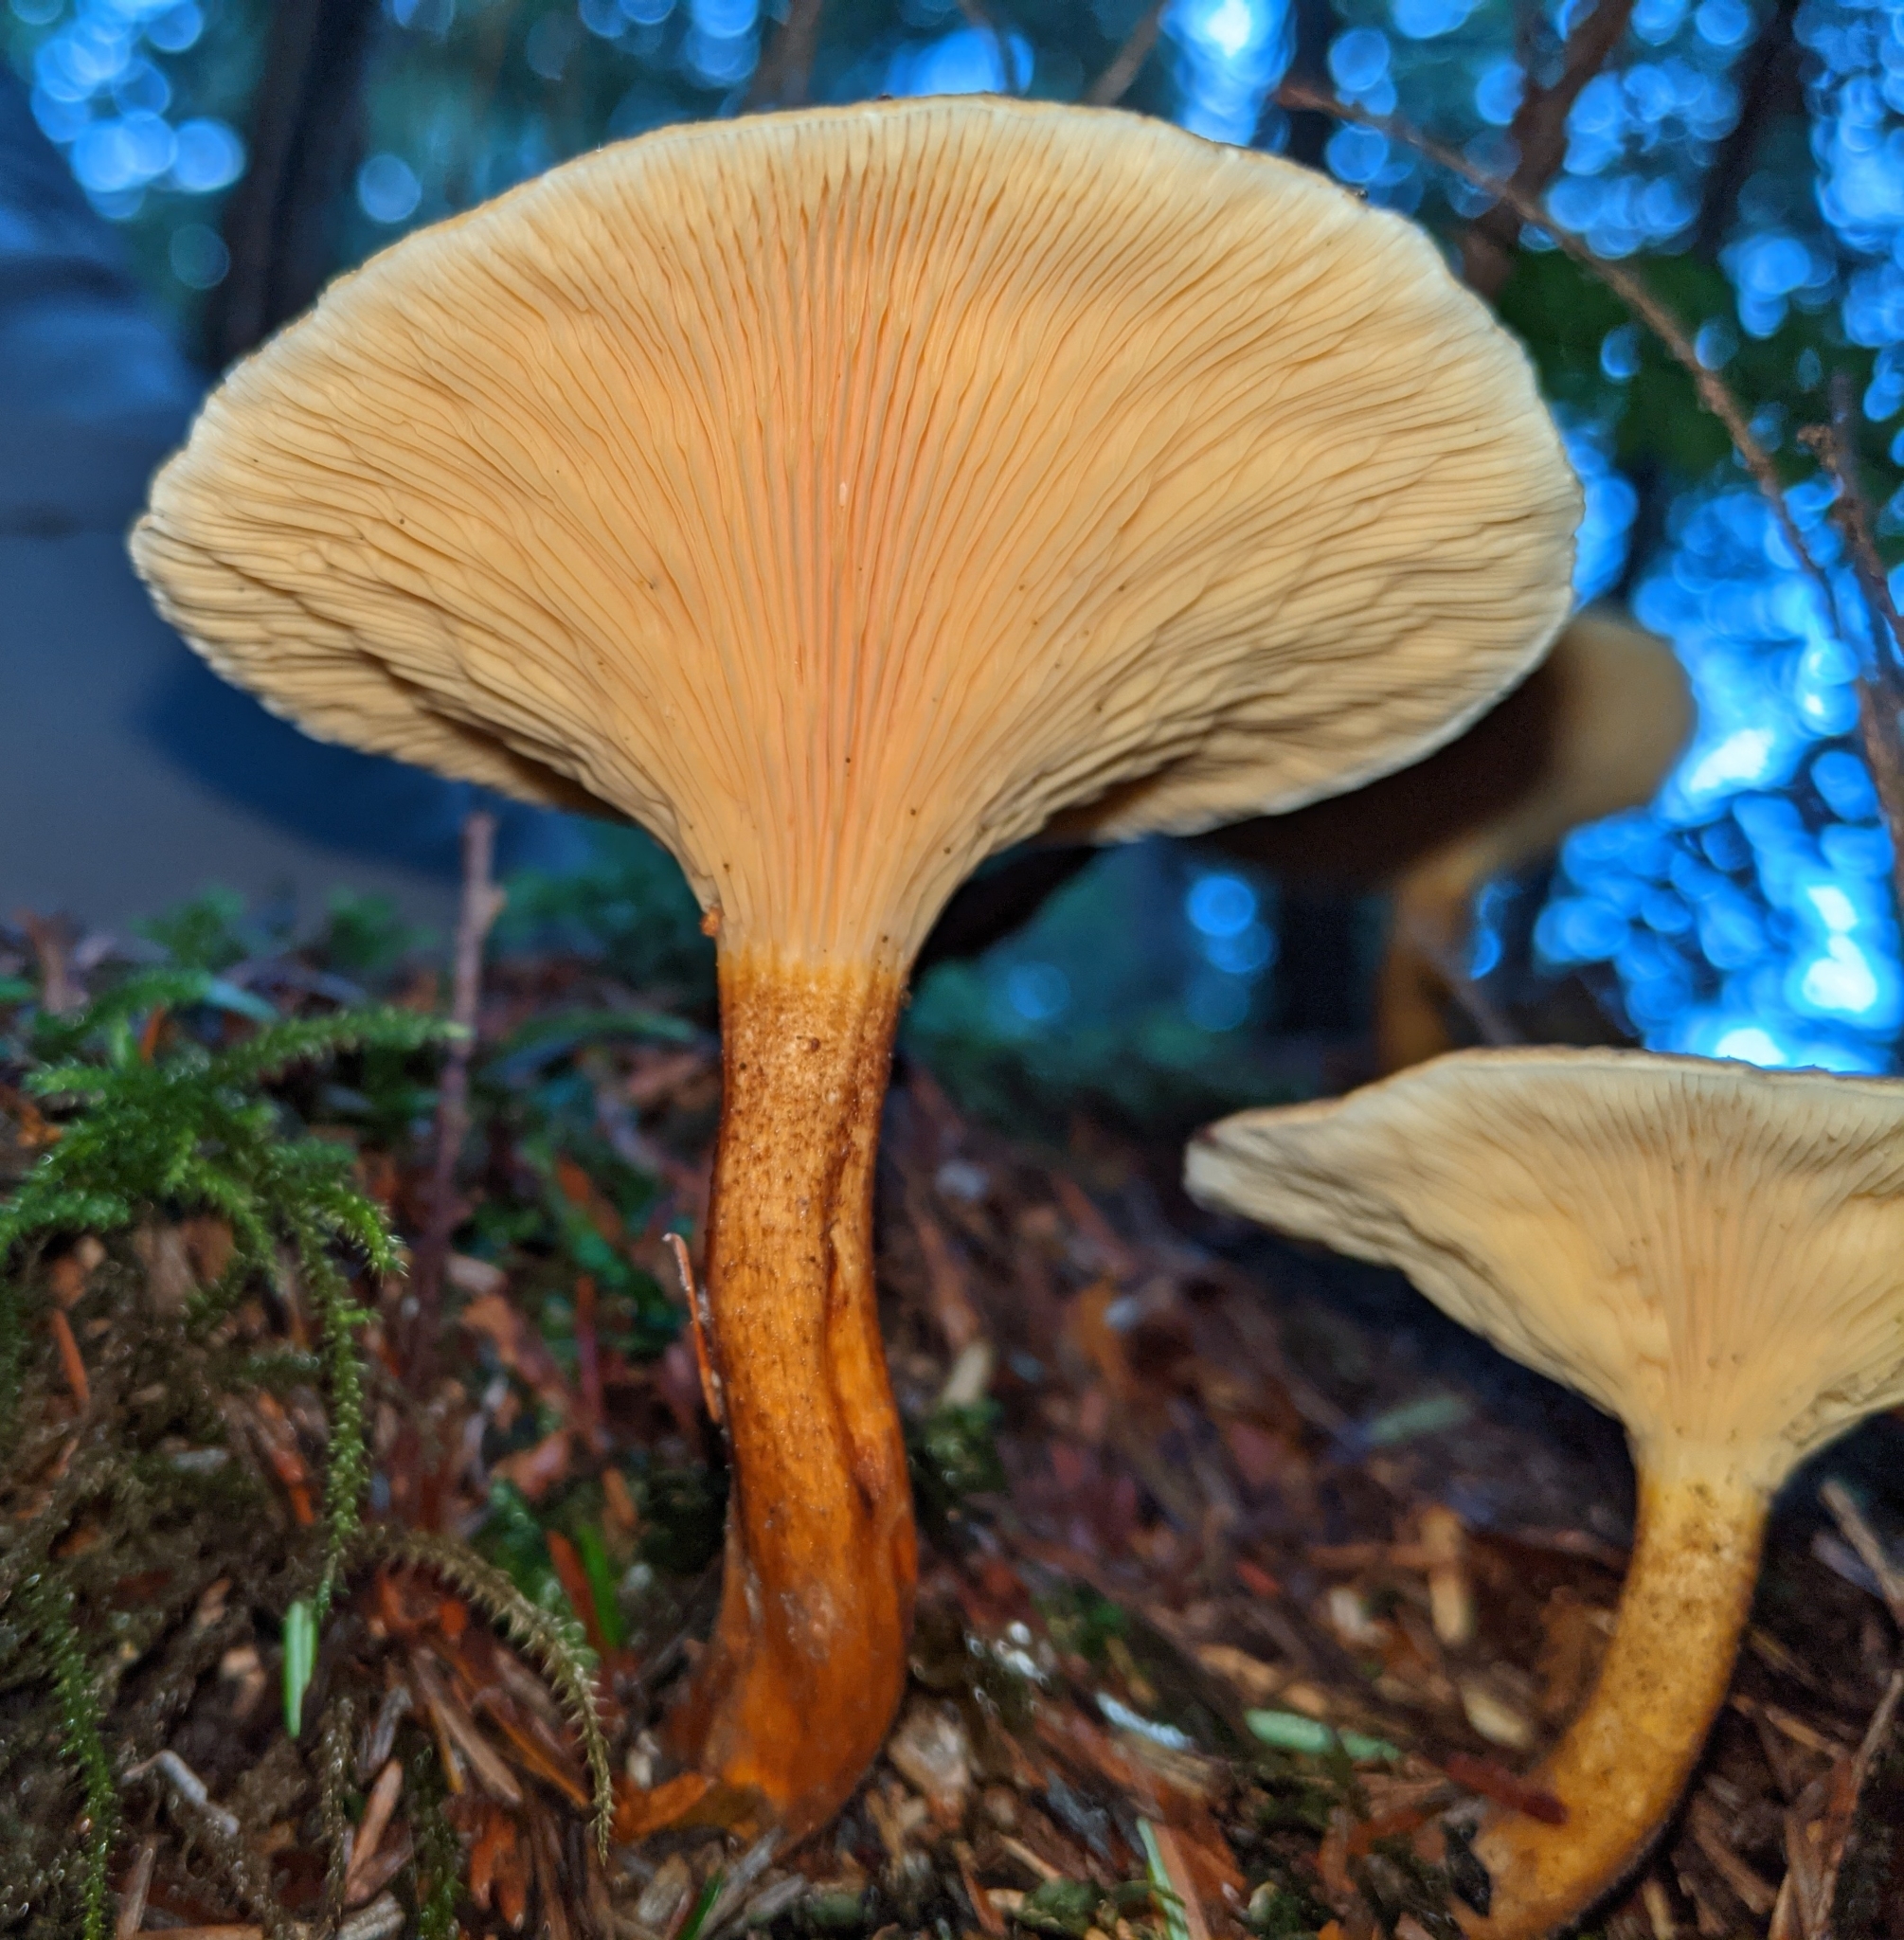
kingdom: Fungi
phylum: Basidiomycota
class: Agaricomycetes
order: Boletales
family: Hygrophoropsidaceae
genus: Hygrophoropsis
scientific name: Hygrophoropsis aurantiaca
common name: False chanterelle
